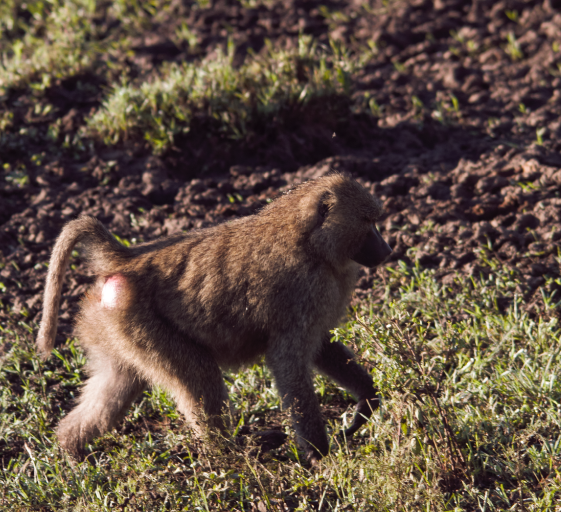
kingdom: Animalia
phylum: Chordata
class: Mammalia
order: Primates
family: Cercopithecidae
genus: Papio
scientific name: Papio anubis
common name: Olive baboon
